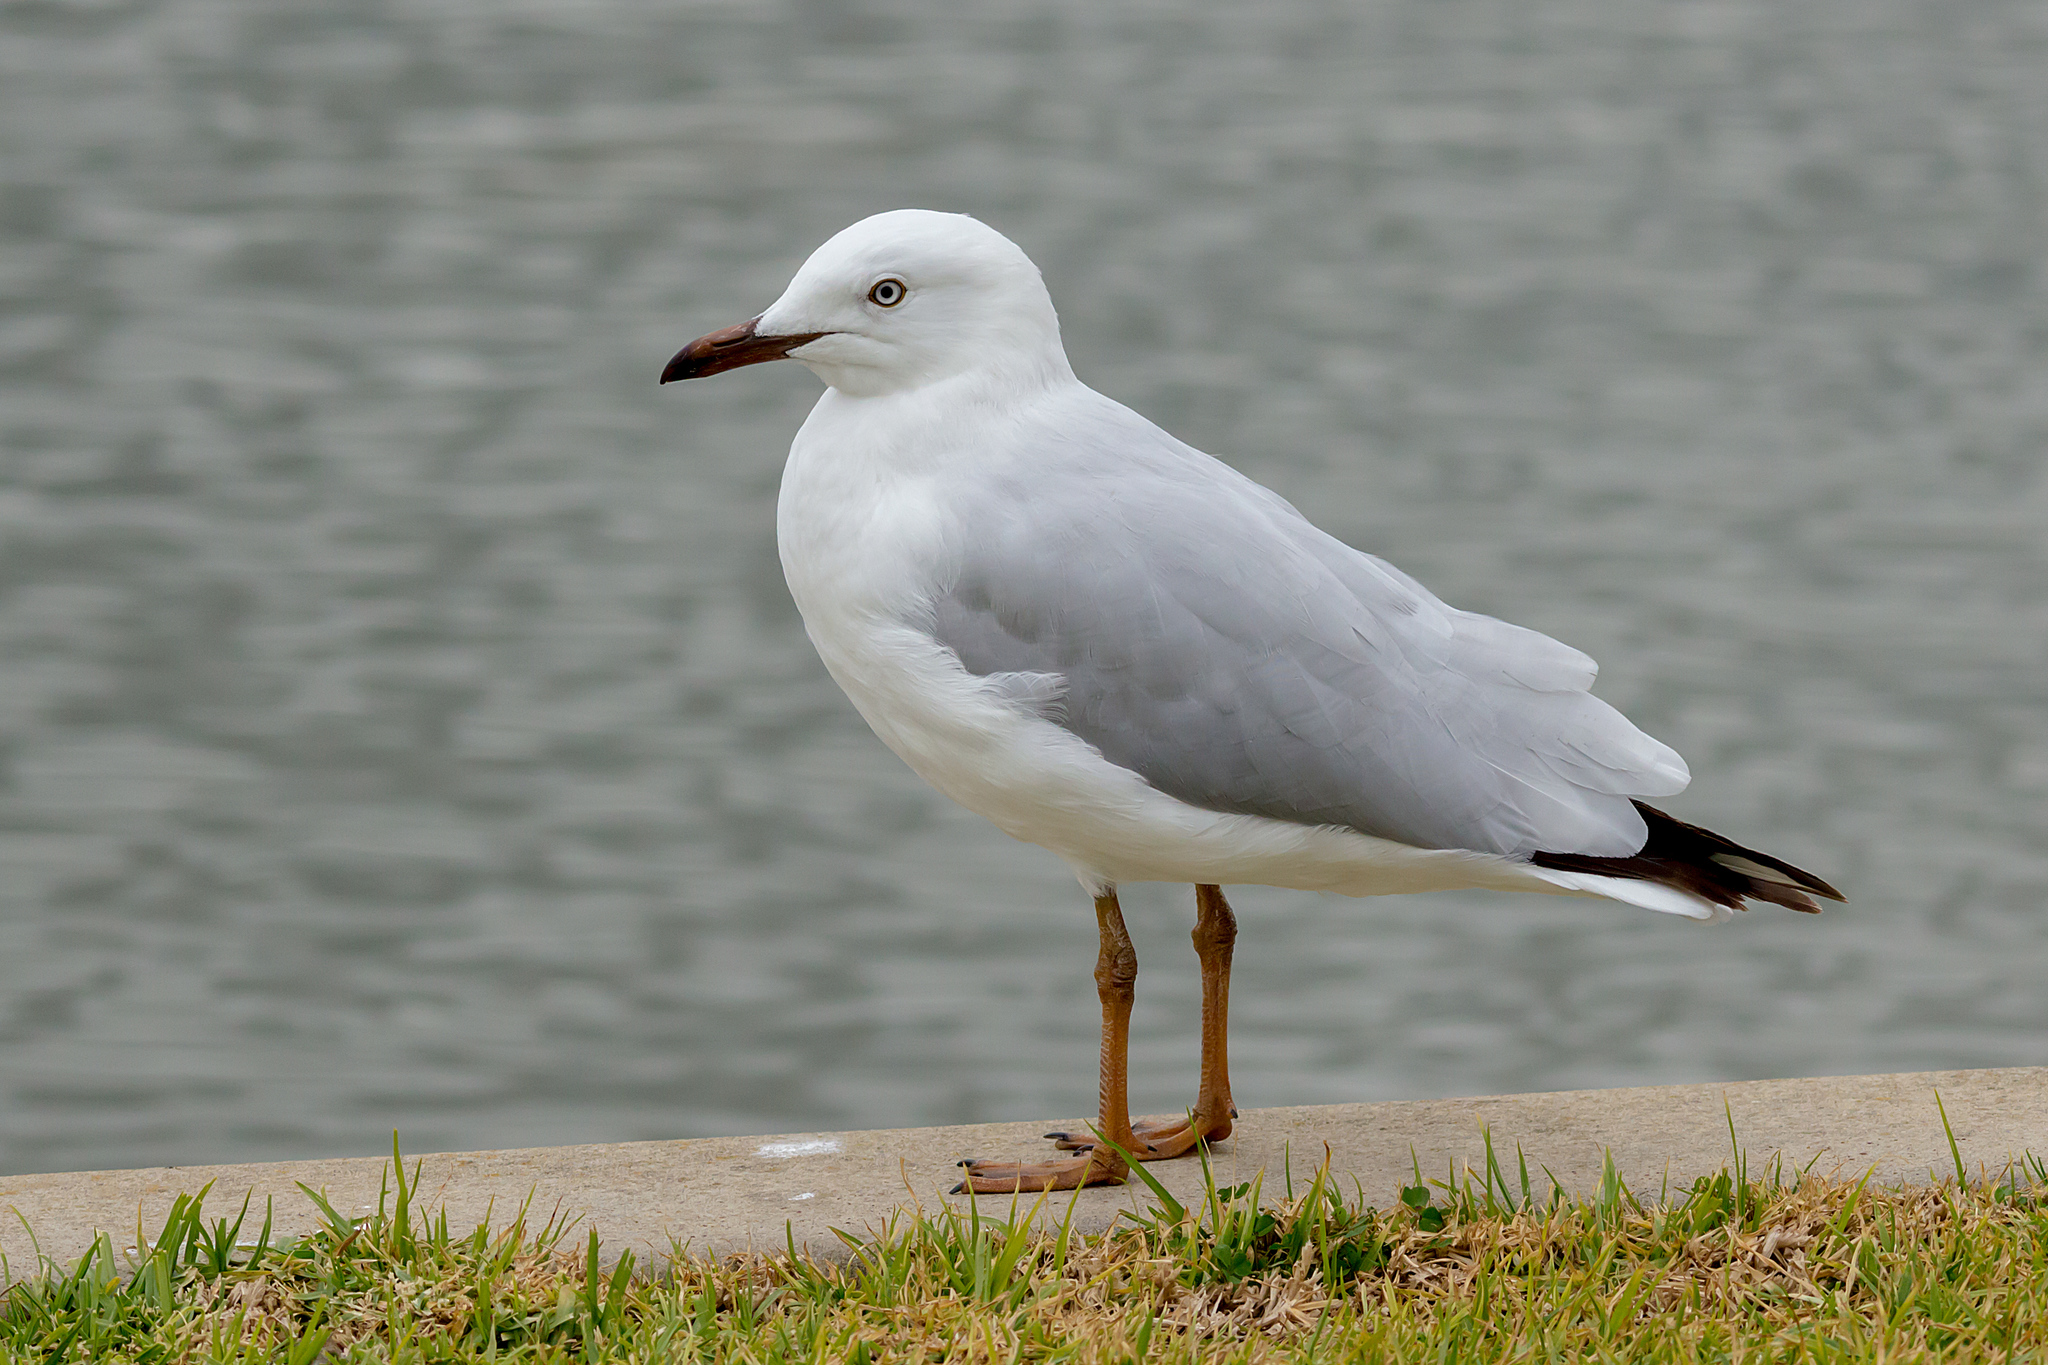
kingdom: Animalia
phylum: Chordata
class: Aves
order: Charadriiformes
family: Laridae
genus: Chroicocephalus
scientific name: Chroicocephalus novaehollandiae
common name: Silver gull
